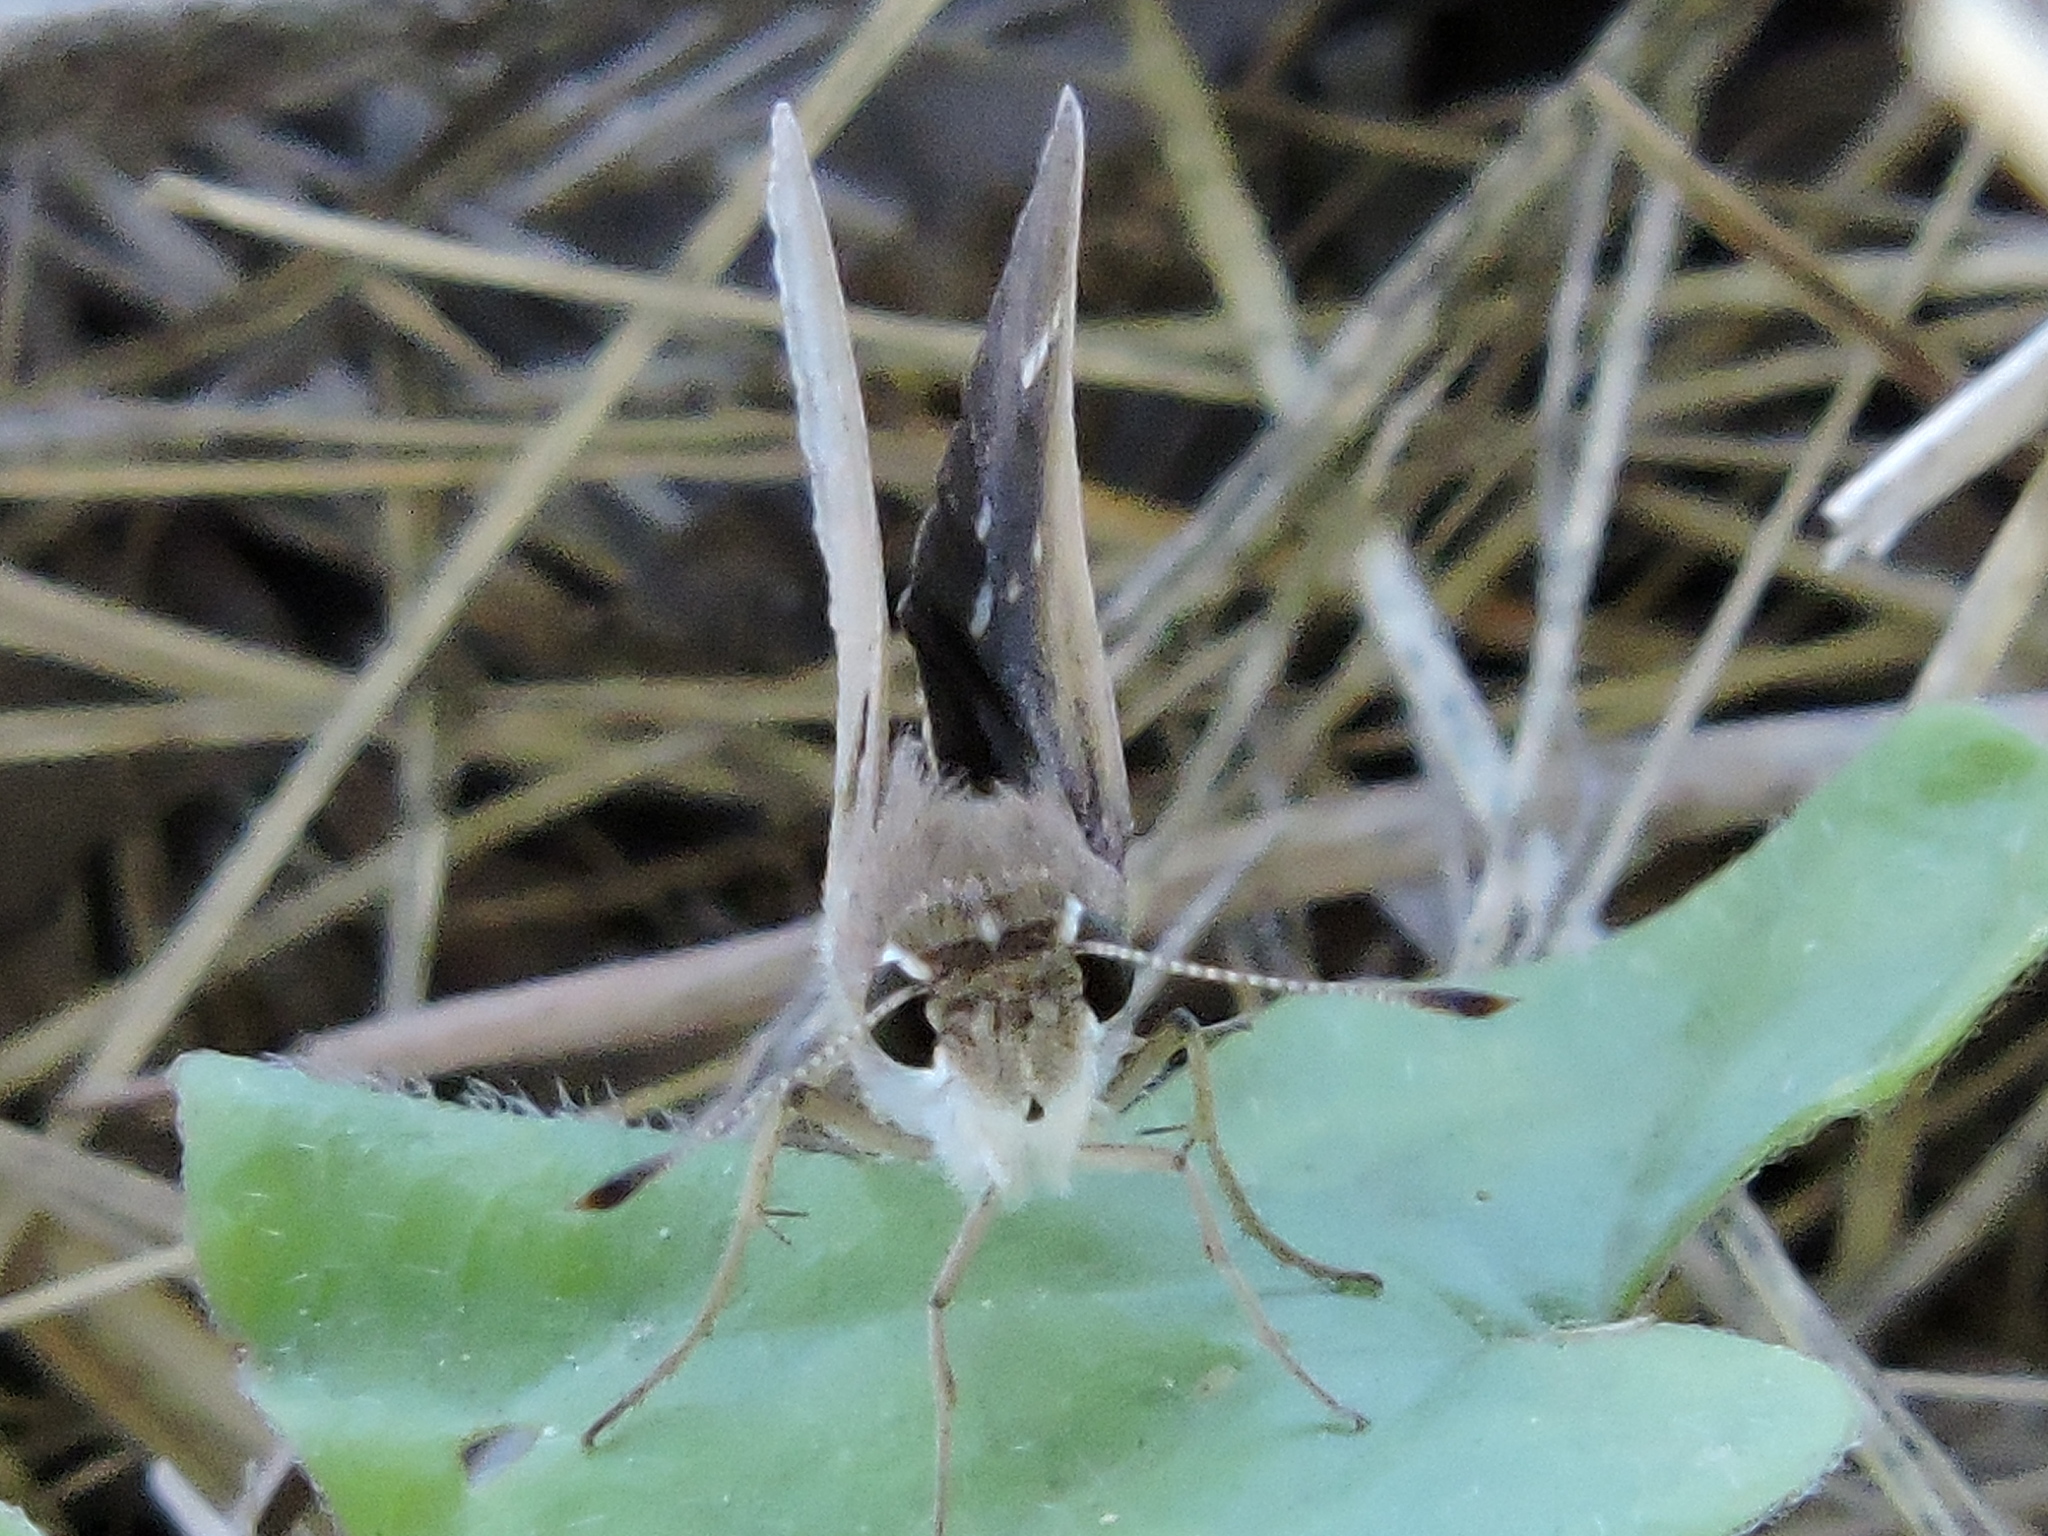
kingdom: Animalia
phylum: Arthropoda
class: Insecta
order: Lepidoptera
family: Hesperiidae
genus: Lerodea
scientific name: Lerodea eufala
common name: Eufala skipper
